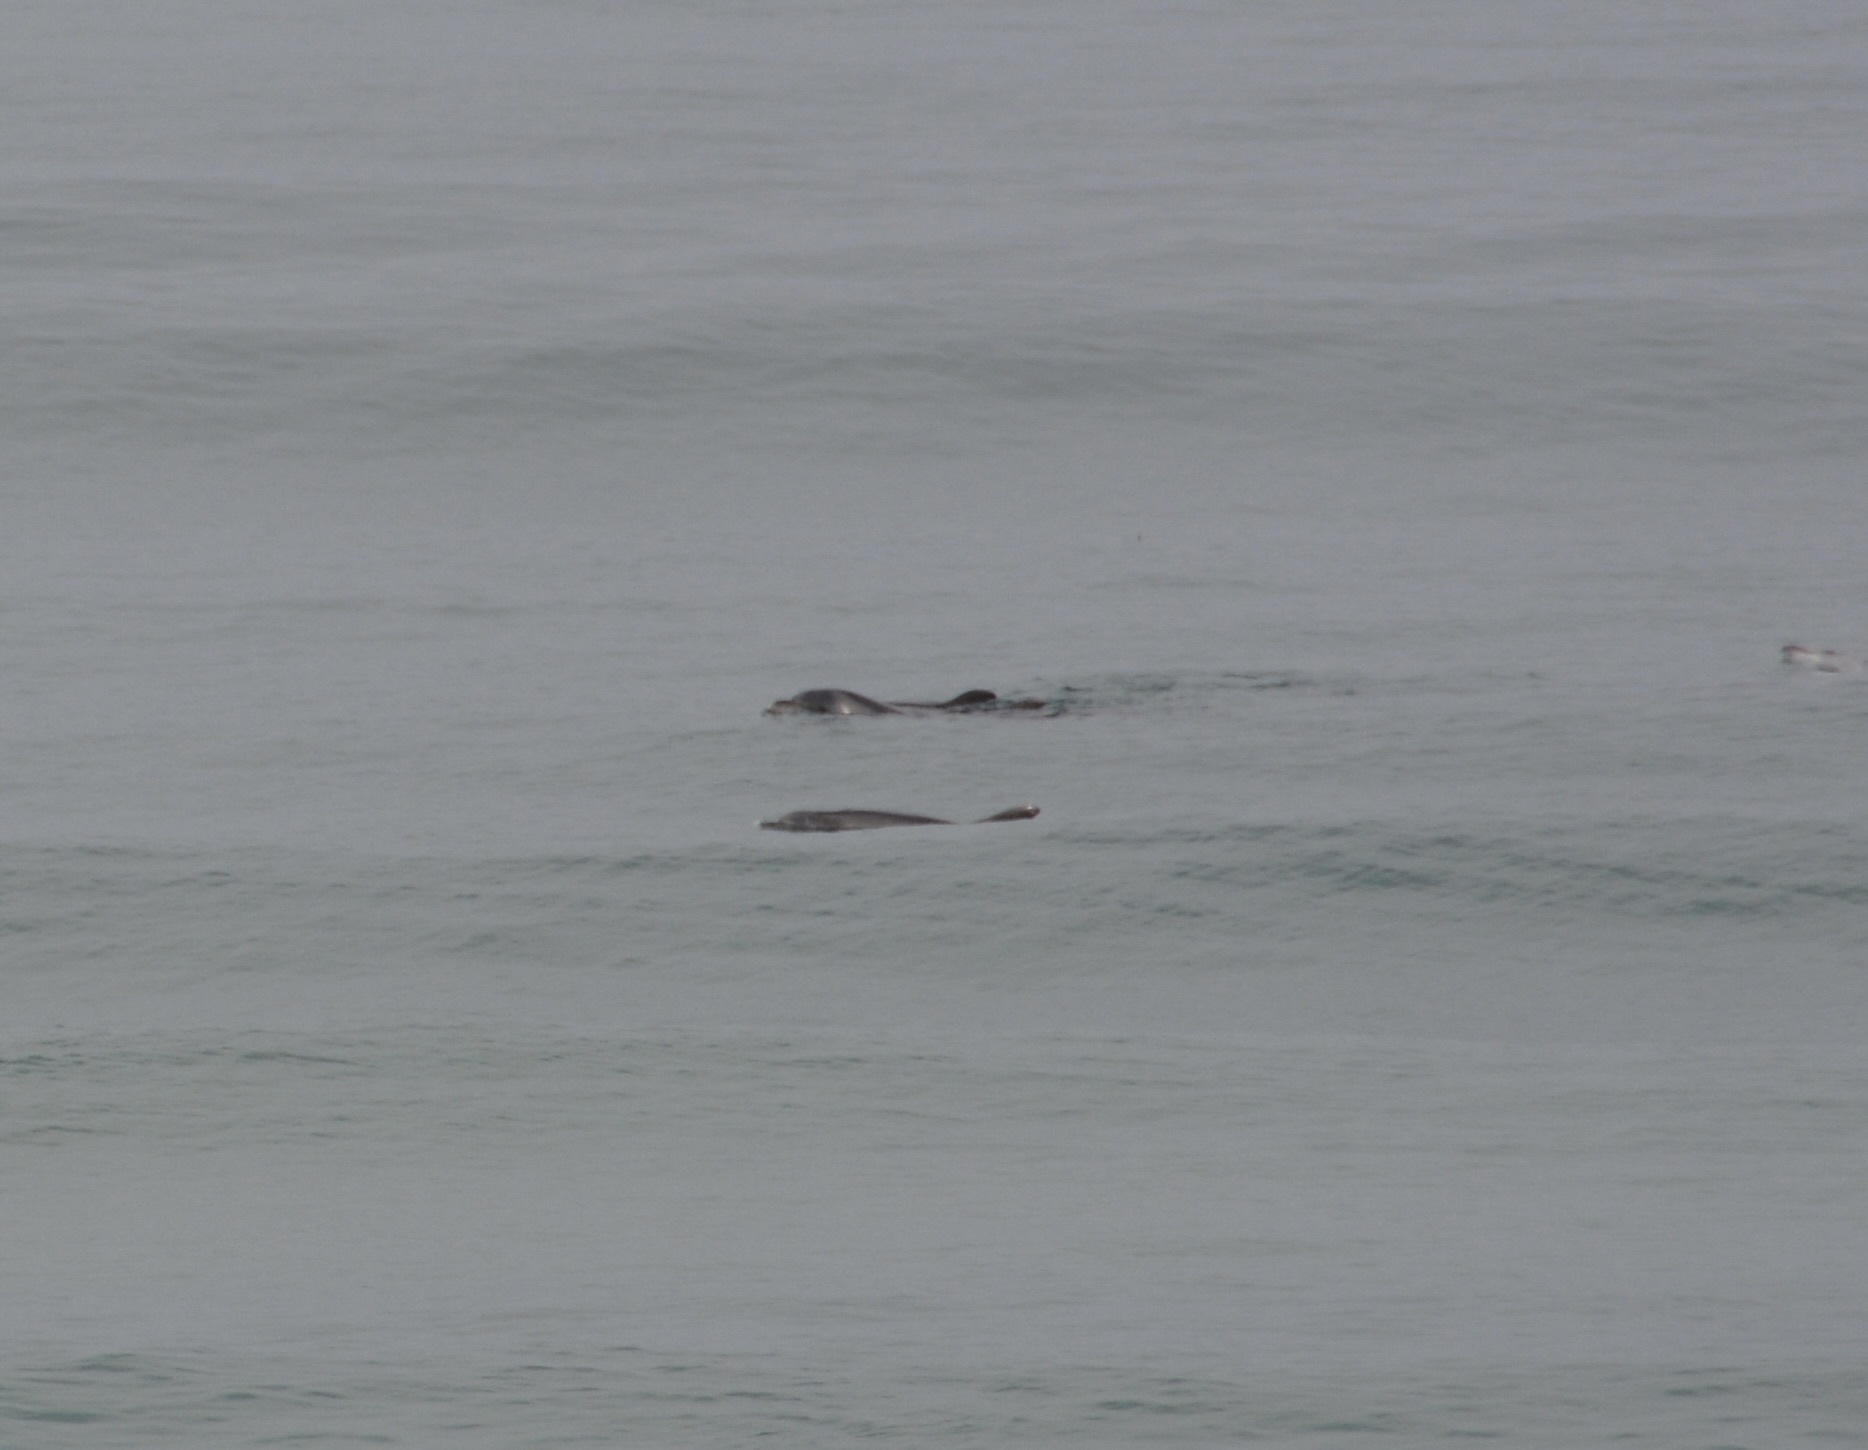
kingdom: Animalia
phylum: Chordata
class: Mammalia
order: Cetacea
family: Delphinidae
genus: Tursiops
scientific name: Tursiops truncatus
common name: Bottlenose dolphin
